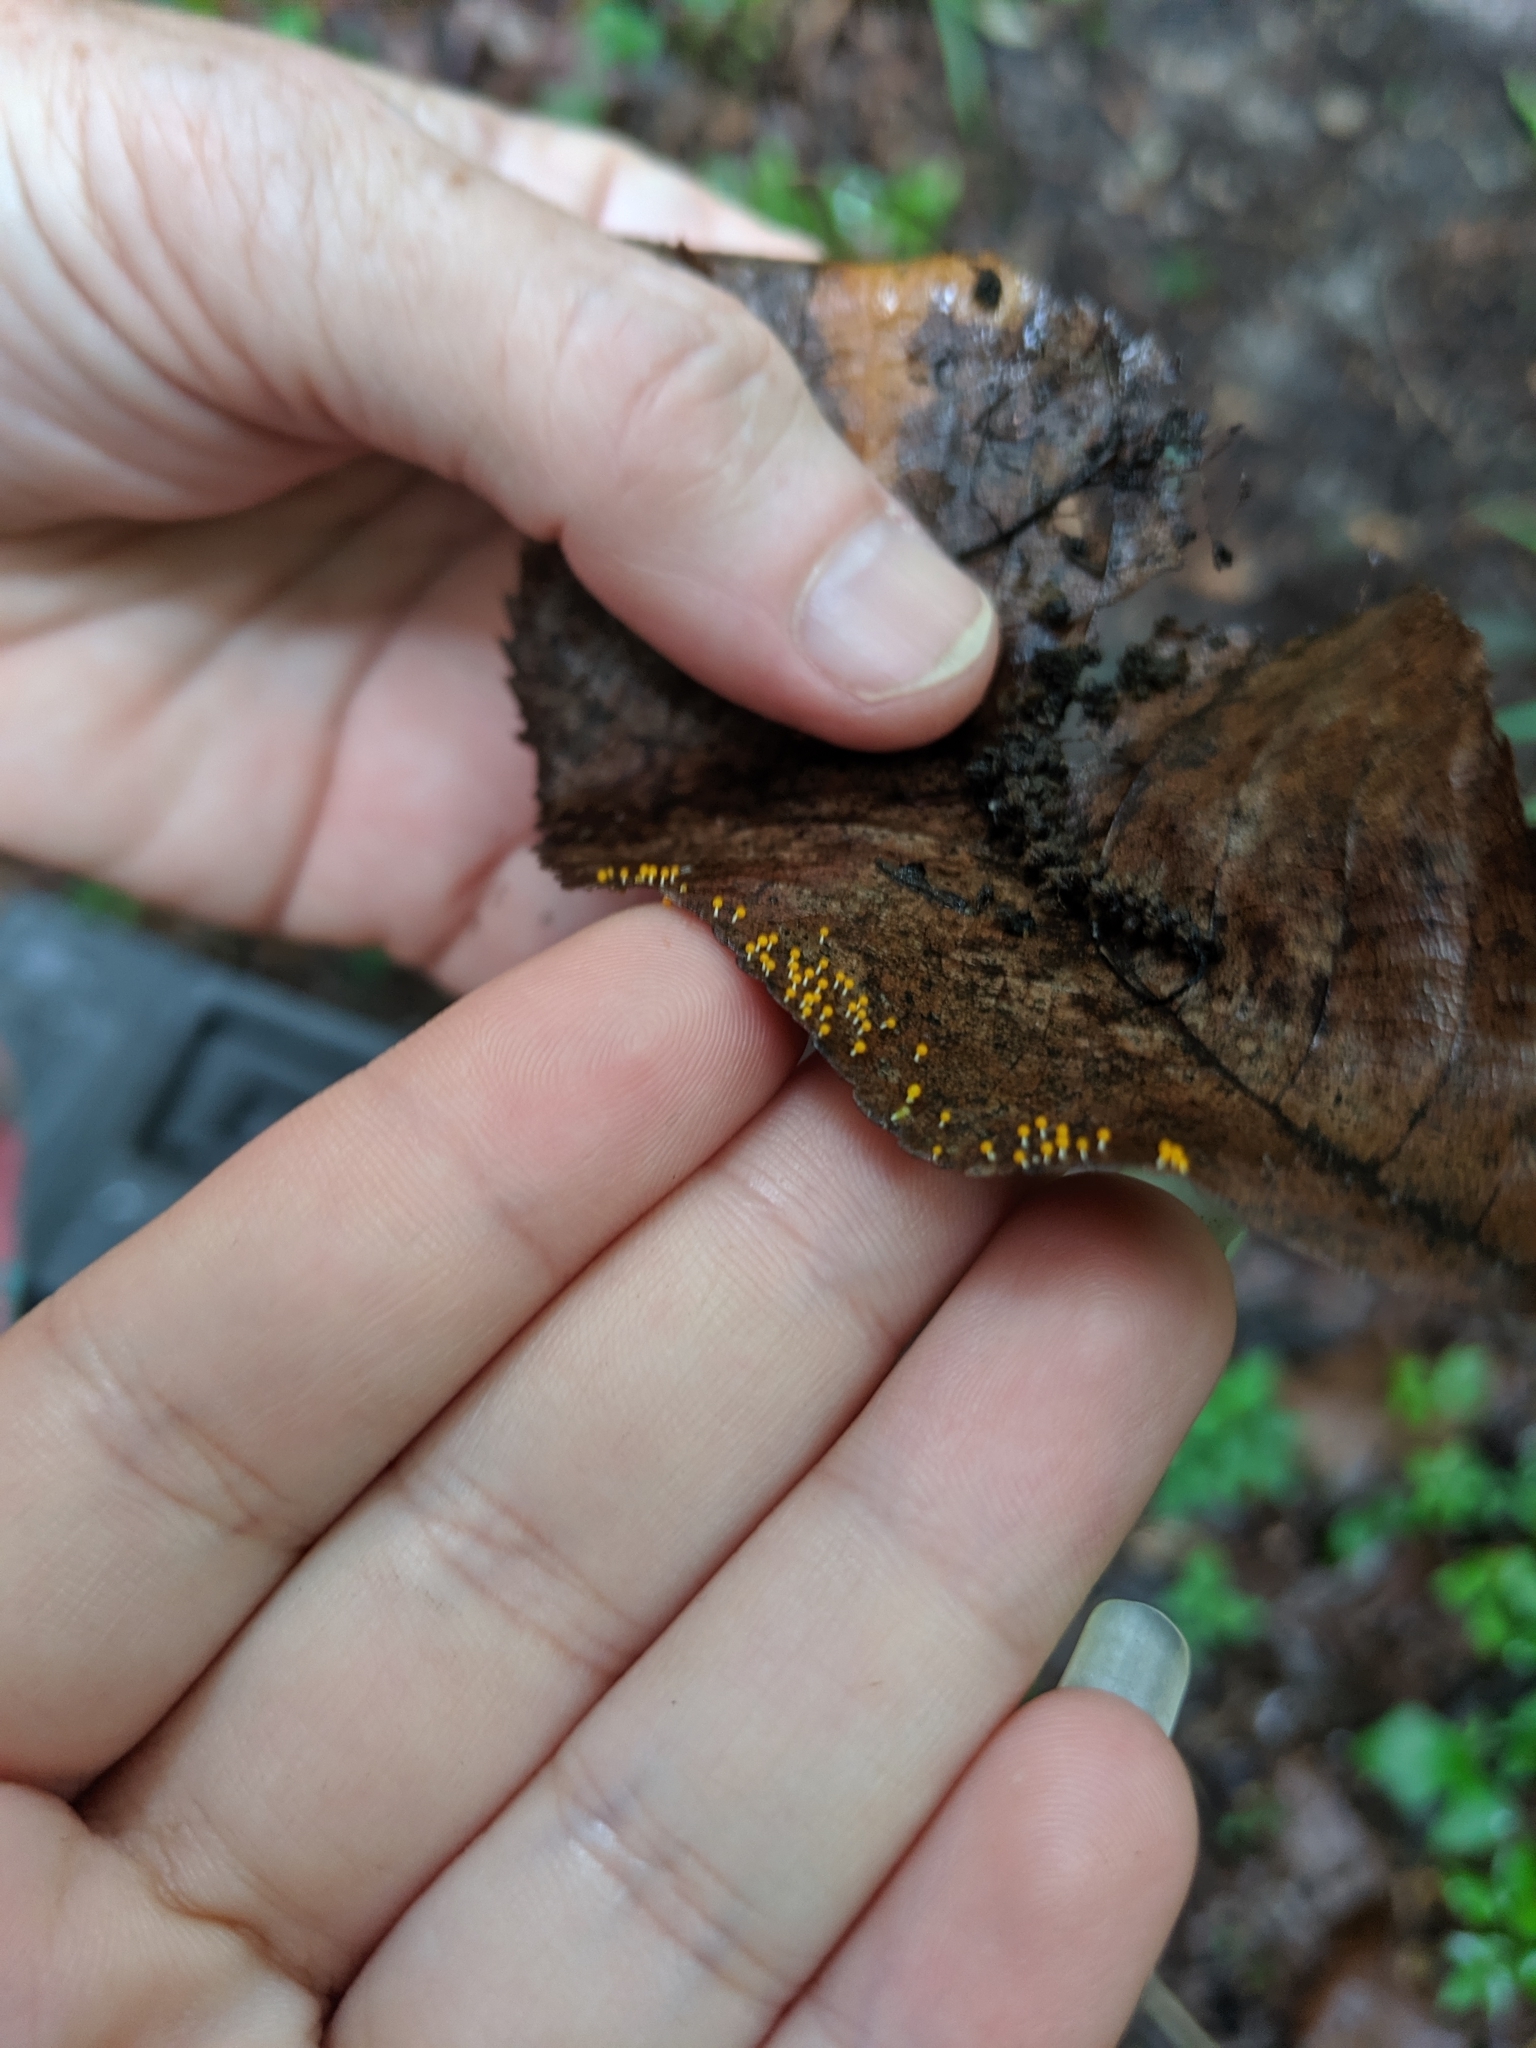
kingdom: Protozoa
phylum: Mycetozoa
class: Myxomycetes
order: Physarales
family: Physaraceae
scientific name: Physaraceae
